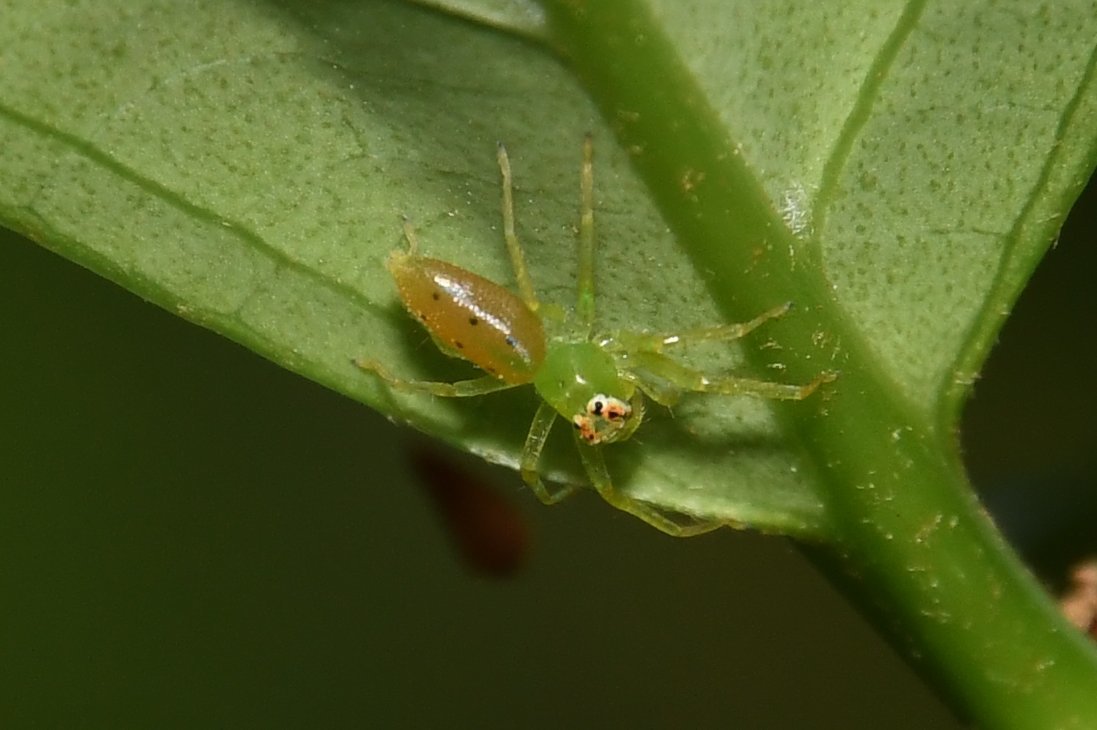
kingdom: Animalia
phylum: Arthropoda
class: Arachnida
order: Araneae
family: Salticidae
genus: Lyssomanes
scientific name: Lyssomanes viridis
